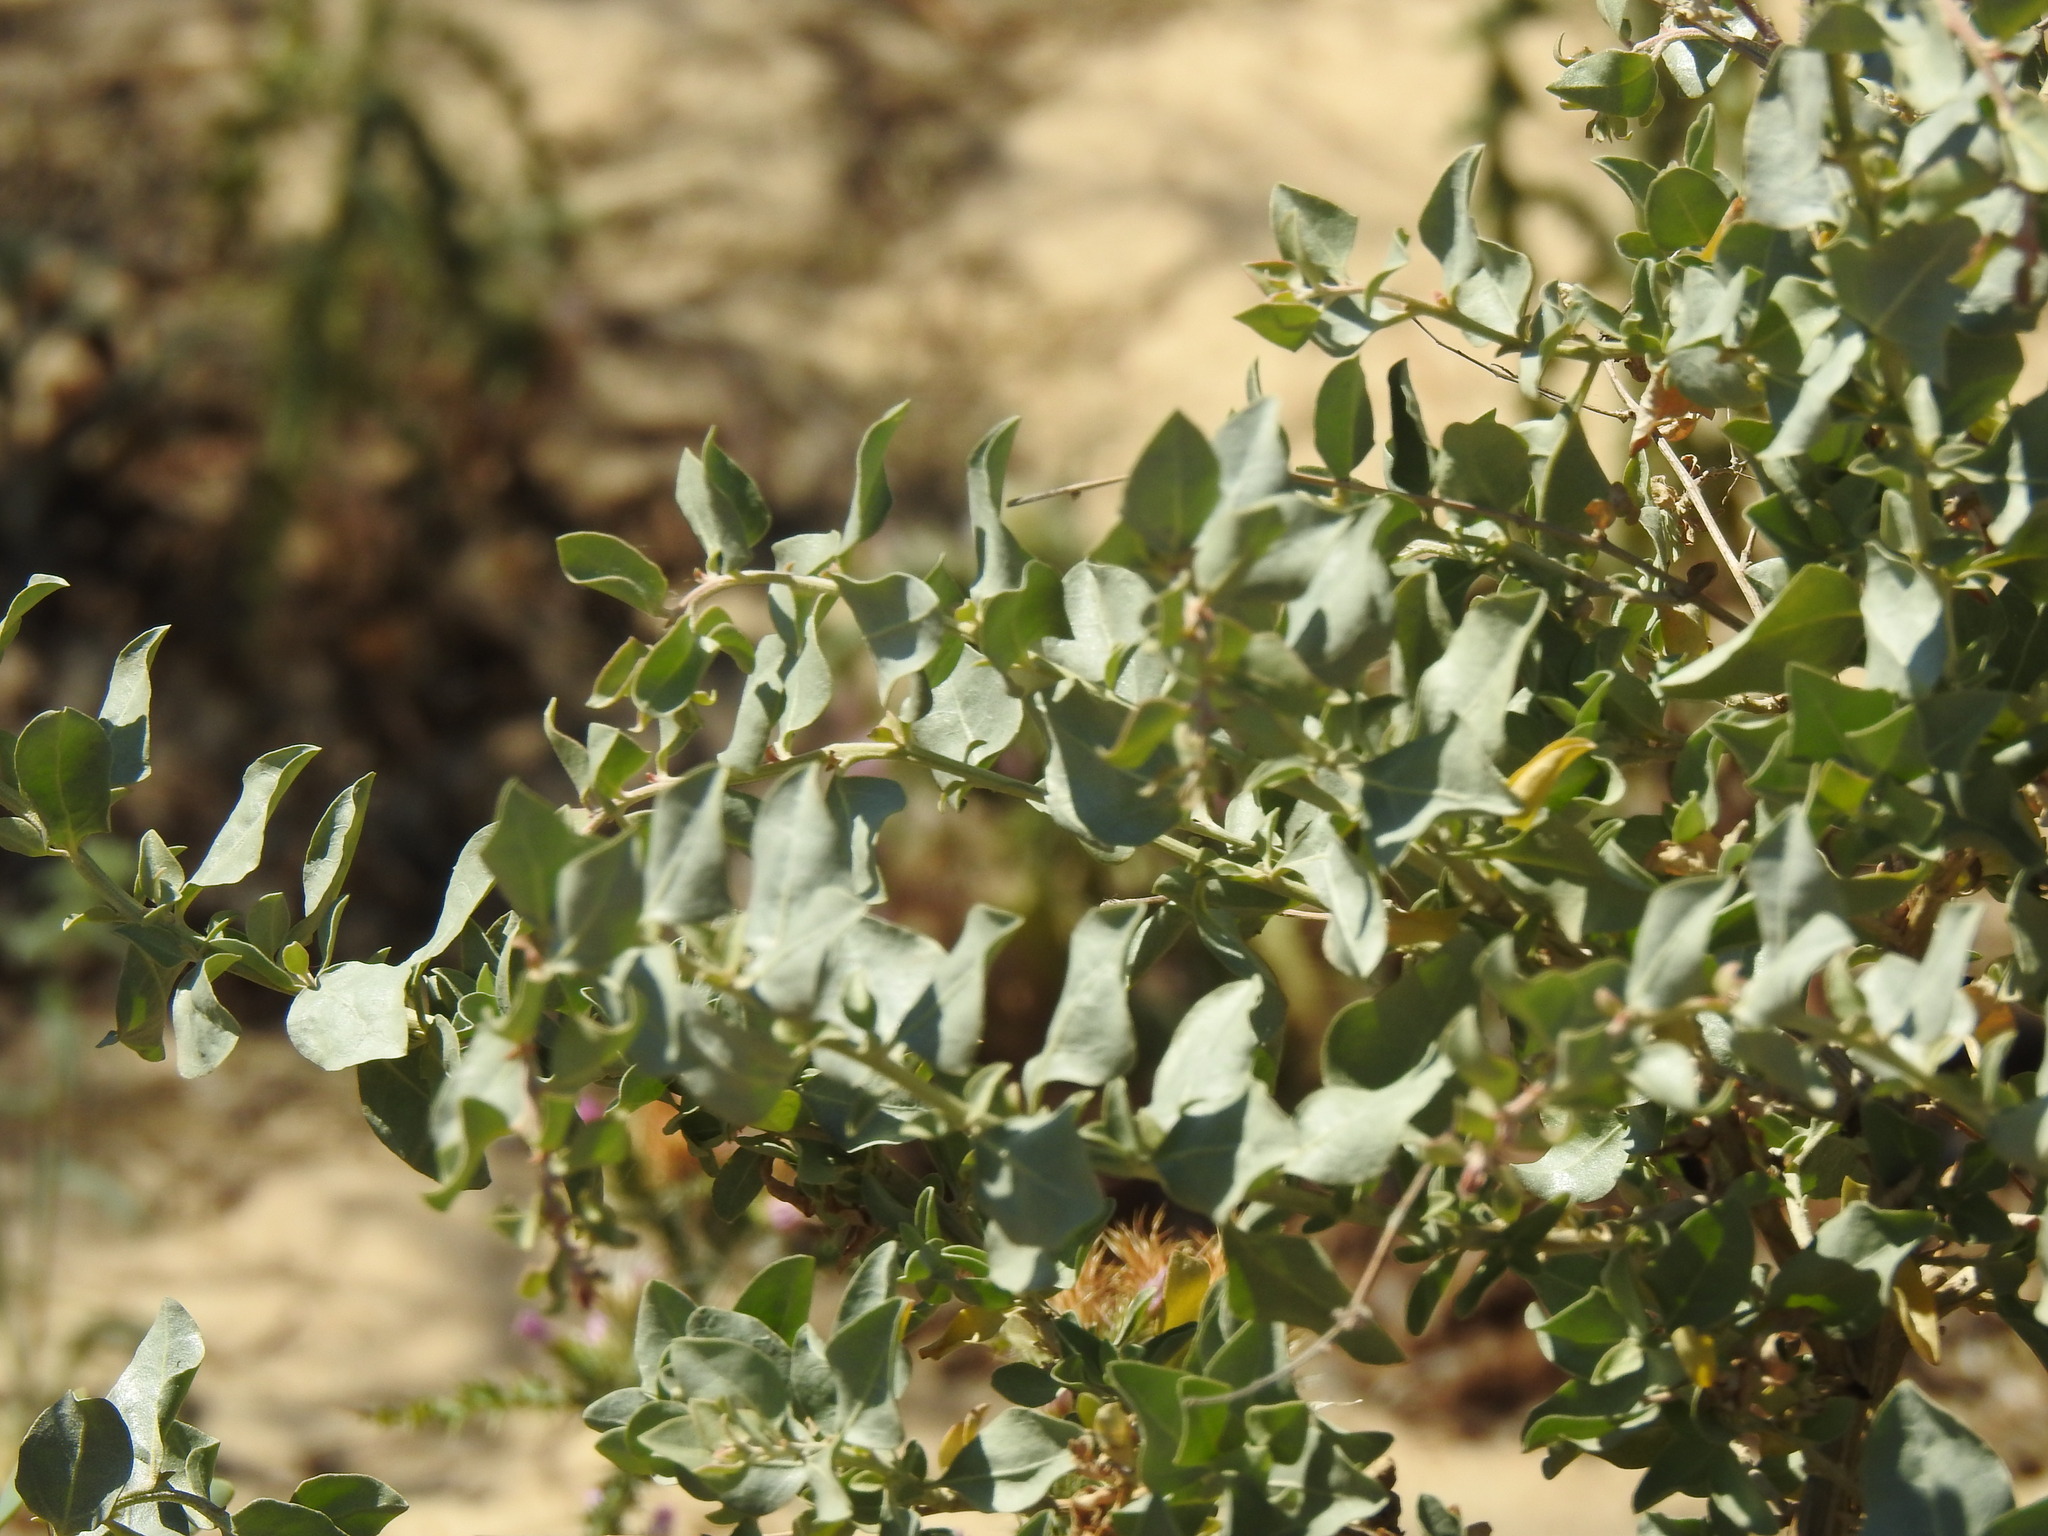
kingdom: Plantae
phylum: Tracheophyta
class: Magnoliopsida
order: Caryophyllales
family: Amaranthaceae
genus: Atriplex
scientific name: Atriplex halimus
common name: Shrubby orache
